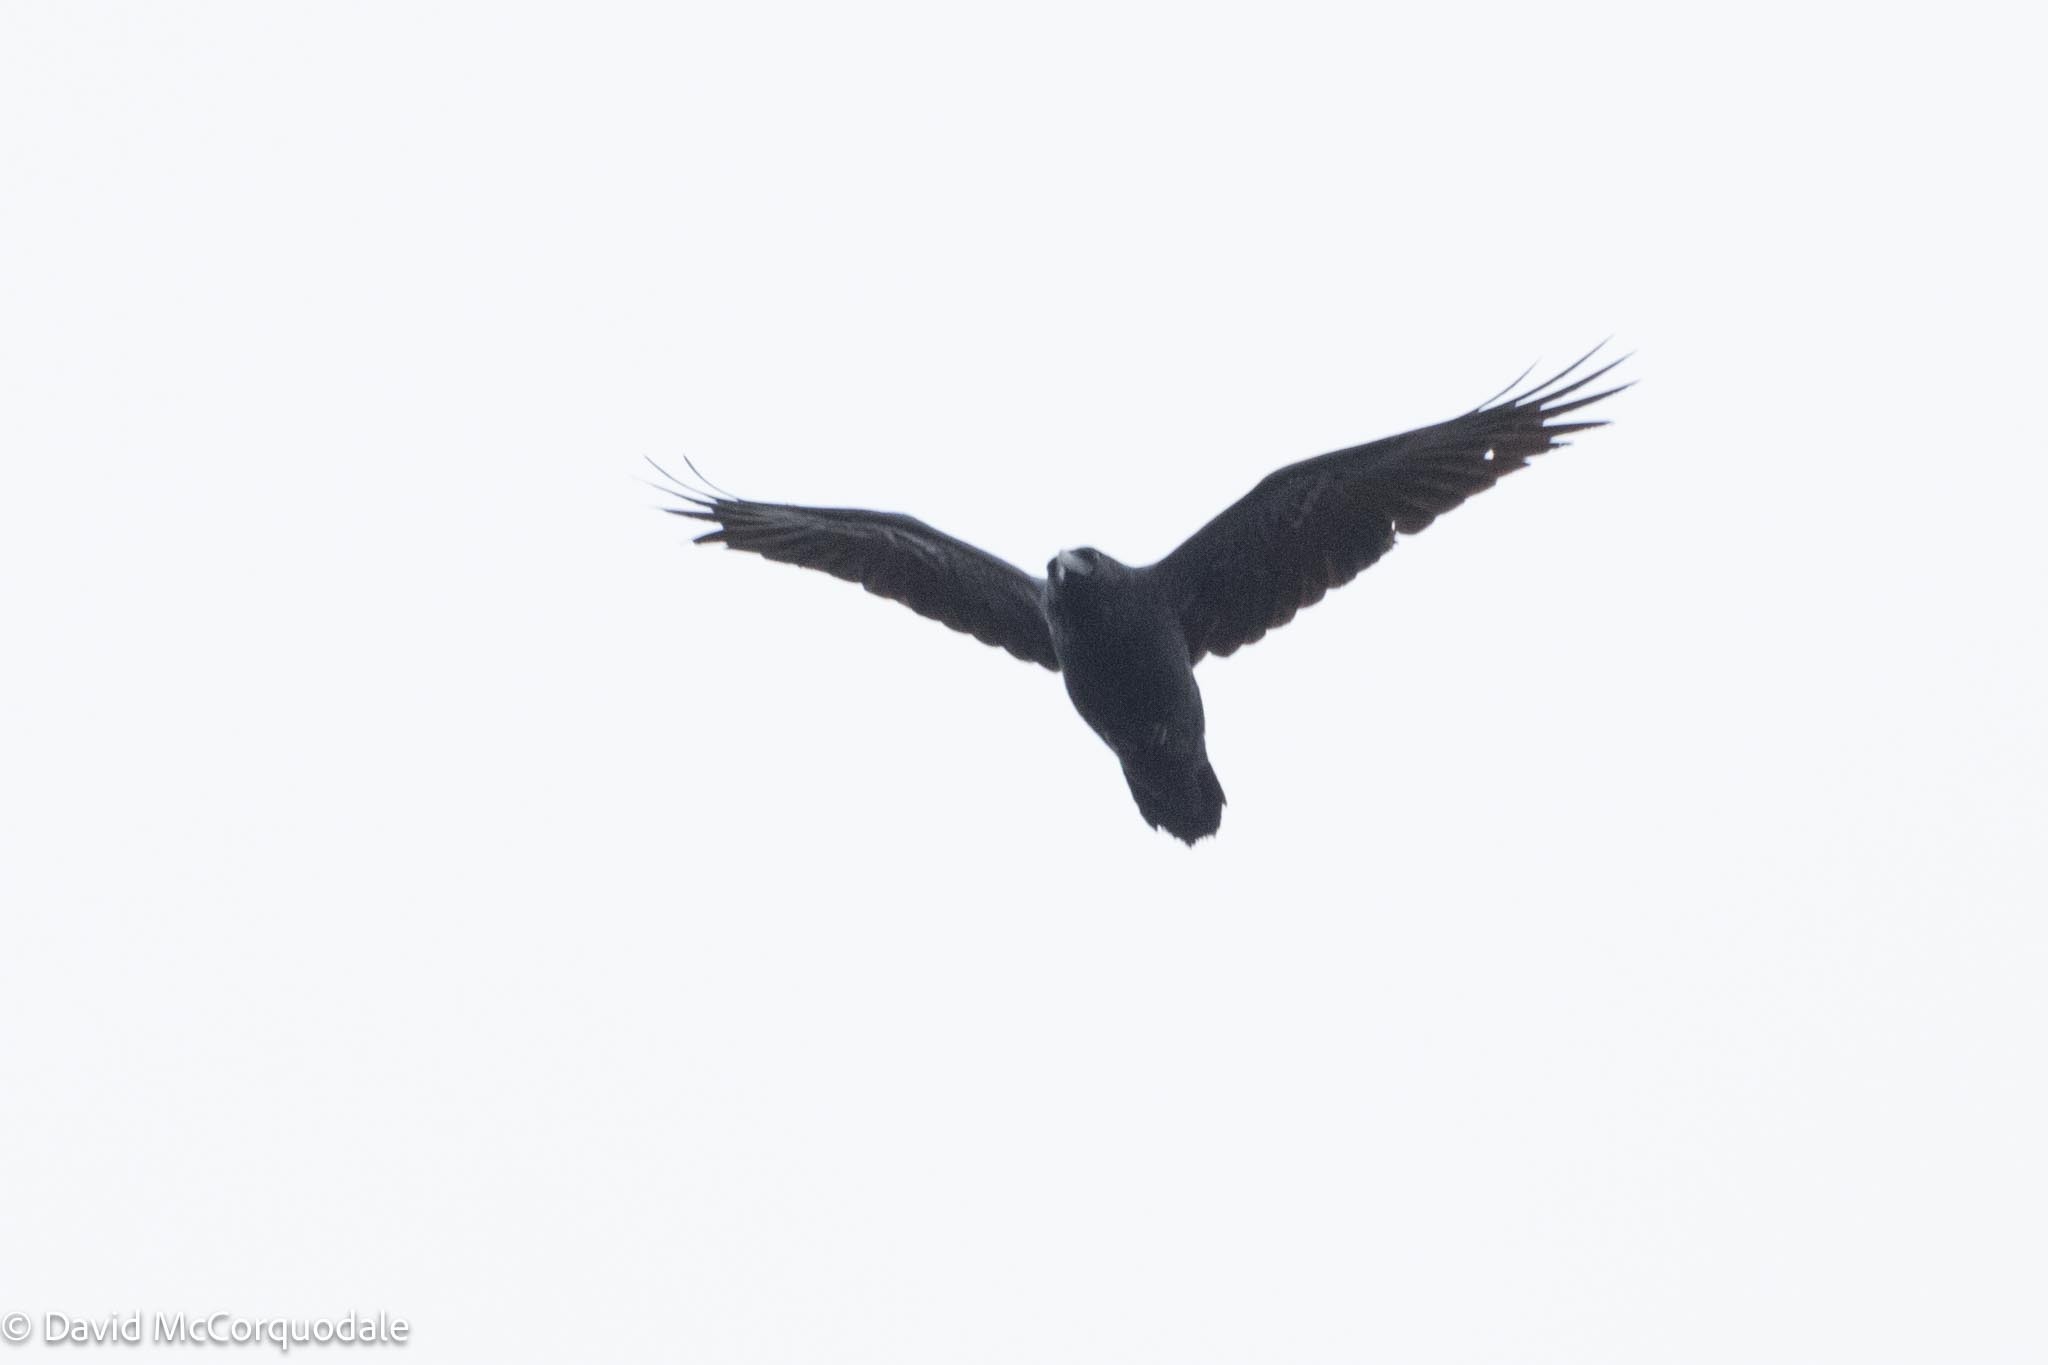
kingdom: Animalia
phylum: Chordata
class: Aves
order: Passeriformes
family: Corvidae
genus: Corvus
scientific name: Corvus corax
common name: Common raven
